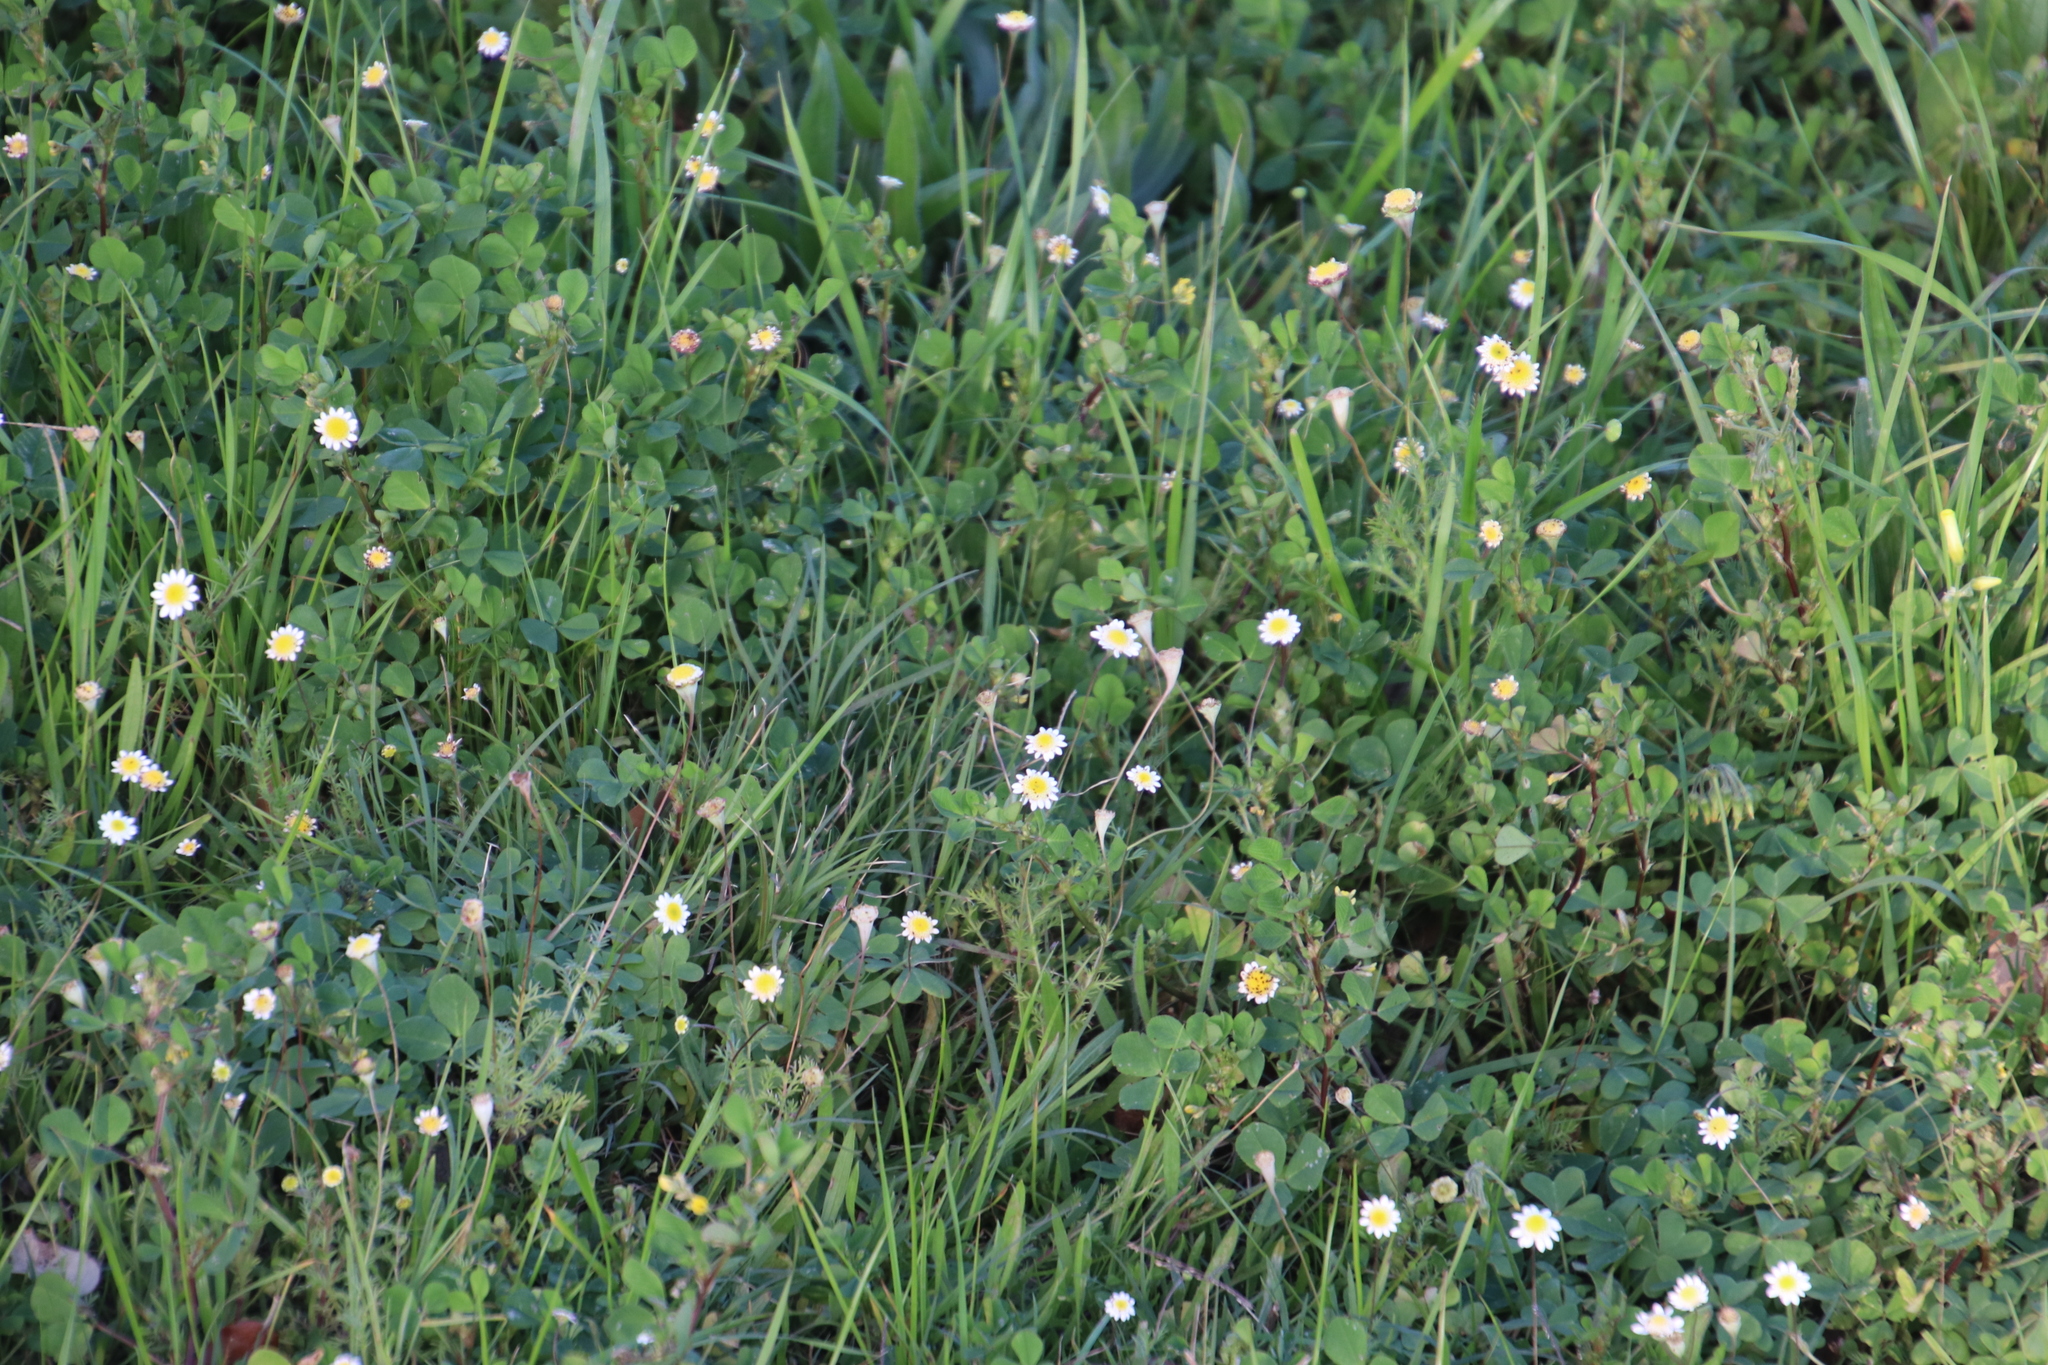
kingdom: Plantae
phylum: Tracheophyta
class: Magnoliopsida
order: Asterales
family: Asteraceae
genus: Cotula
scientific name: Cotula turbinata
